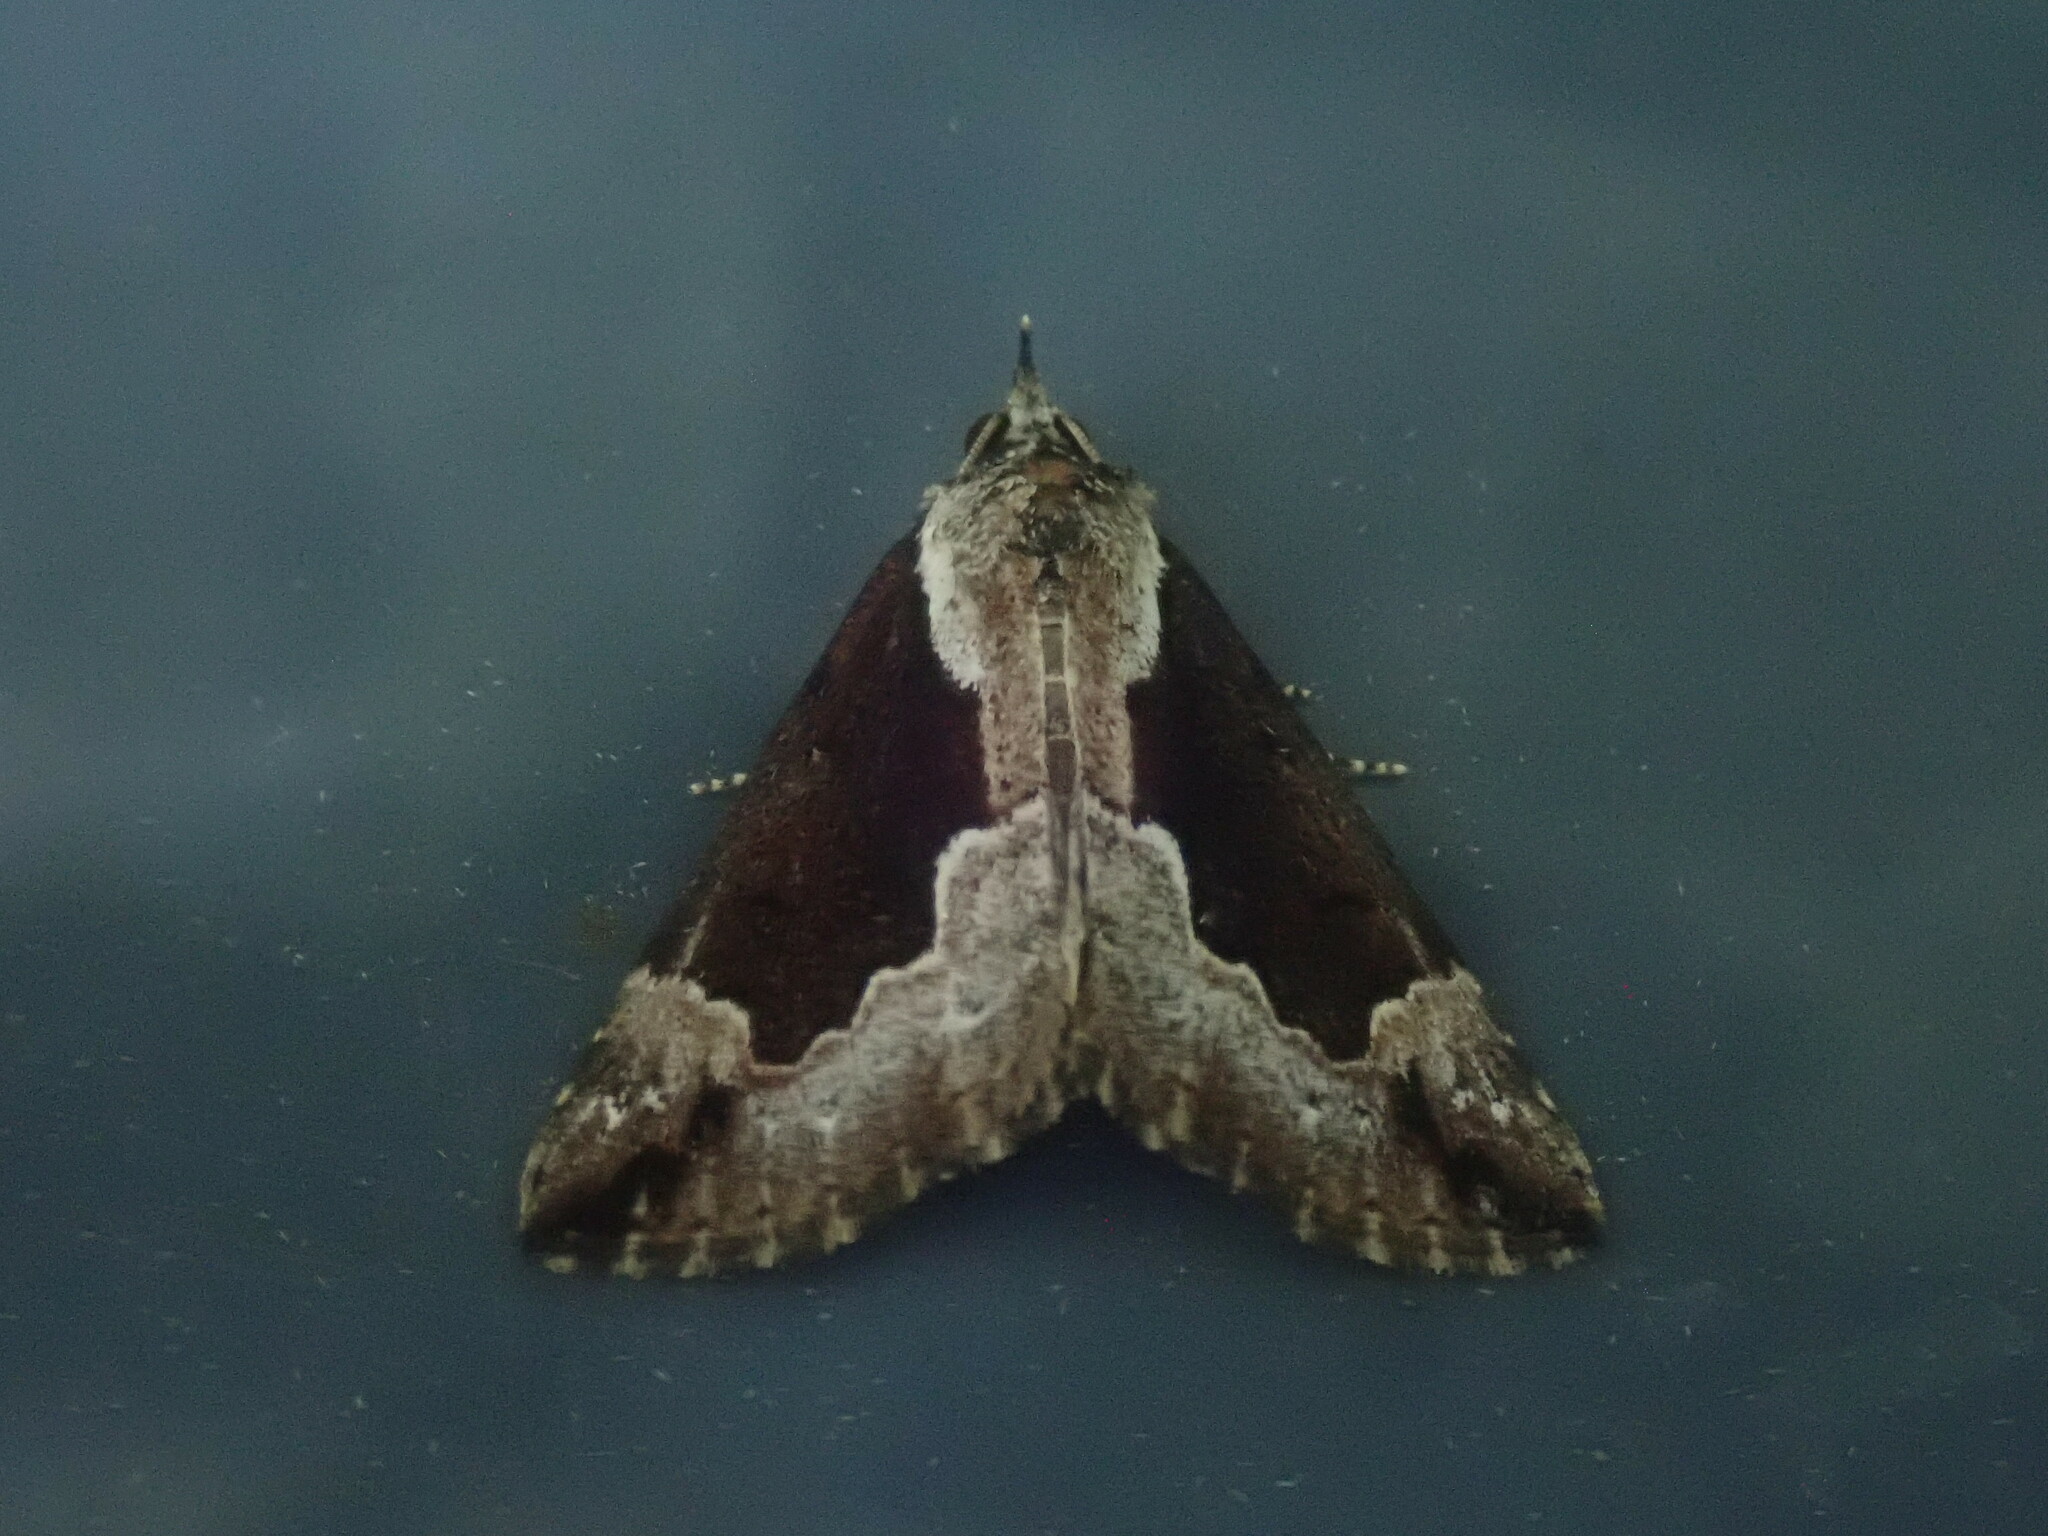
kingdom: Animalia
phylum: Arthropoda
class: Insecta
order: Lepidoptera
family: Erebidae
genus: Hypena
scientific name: Hypena baltimoralis
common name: Baltimore snout
